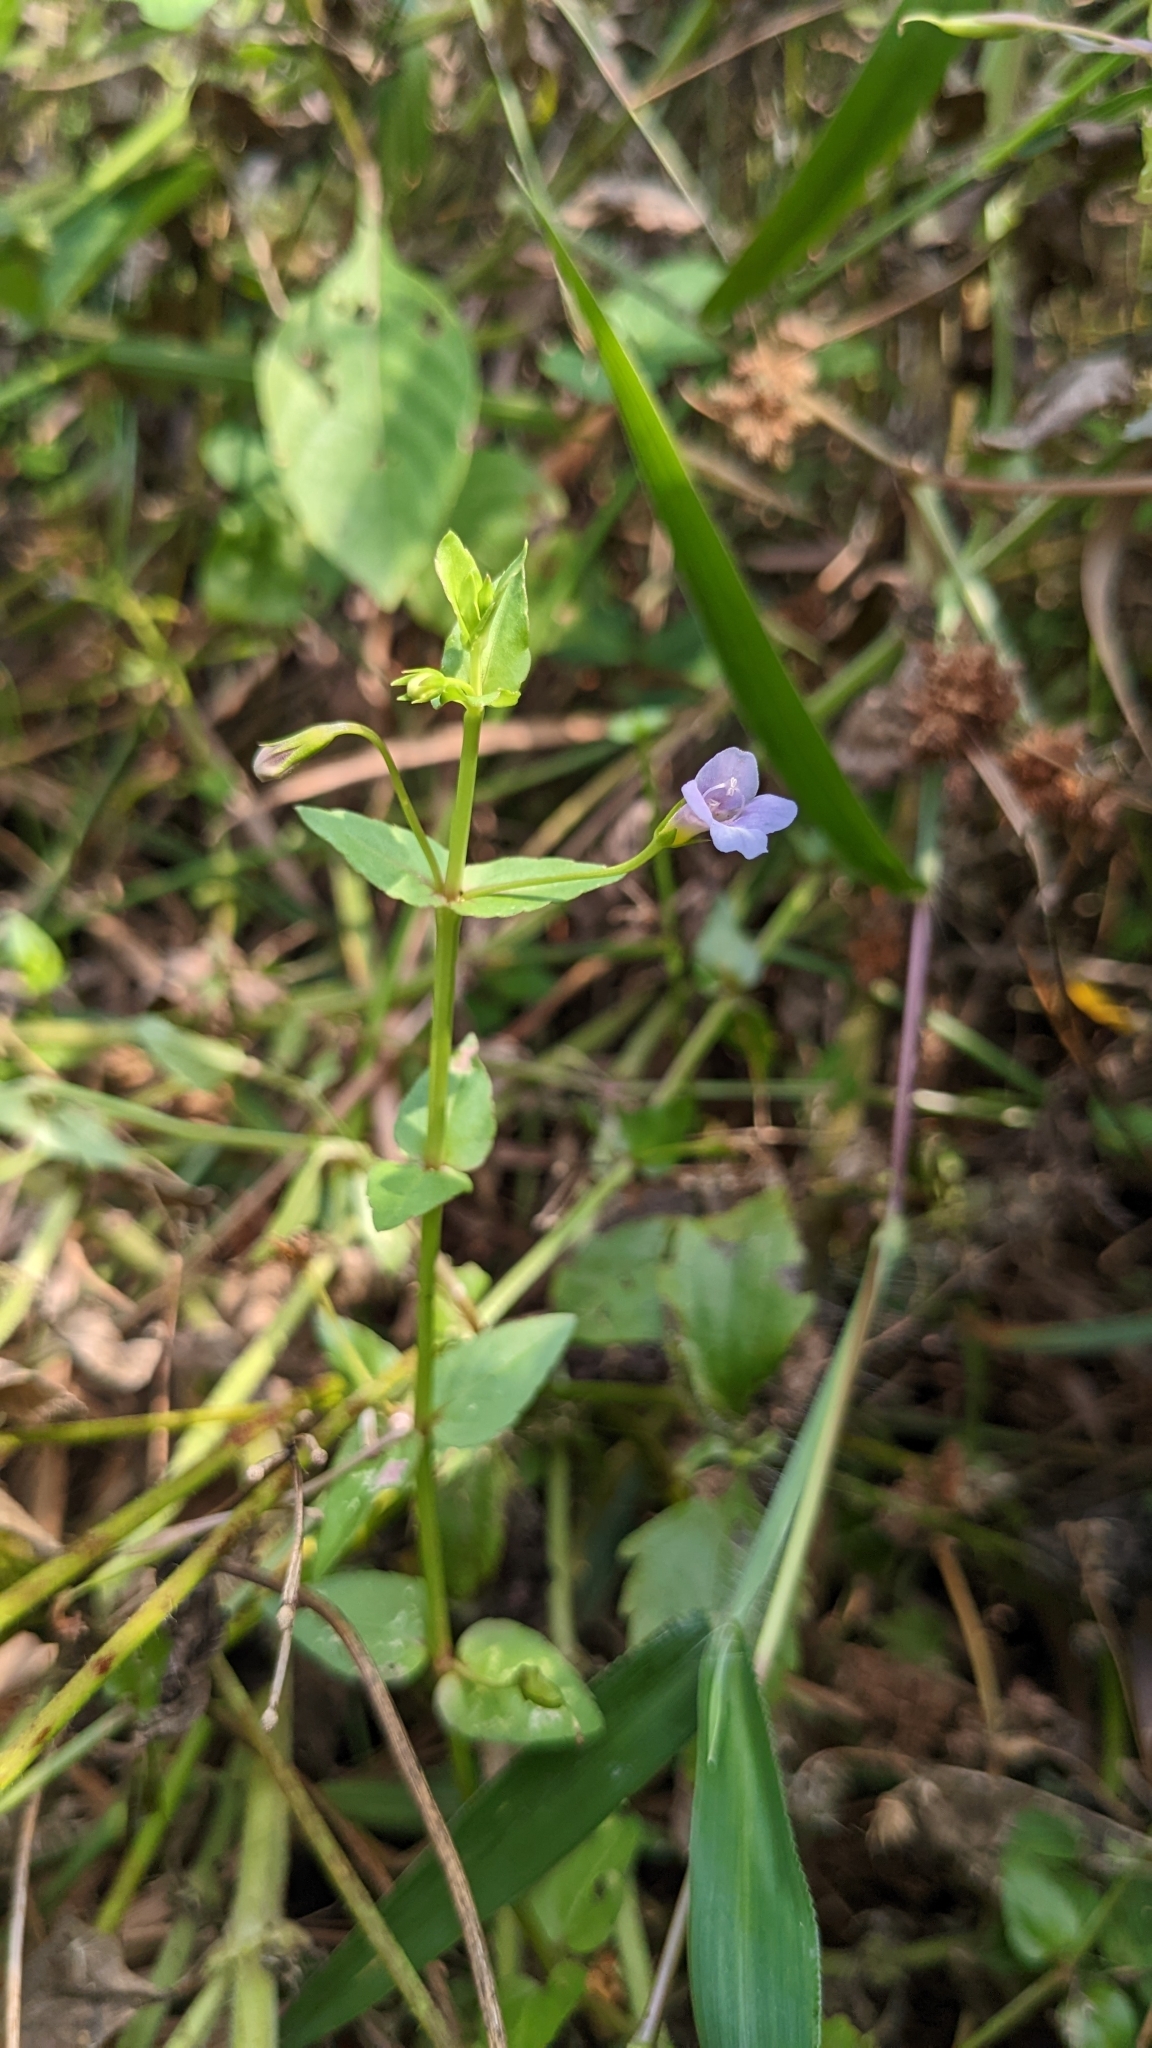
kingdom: Plantae
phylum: Tracheophyta
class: Magnoliopsida
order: Lamiales
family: Linderniaceae
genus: Torenia
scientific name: Torenia anagallis
